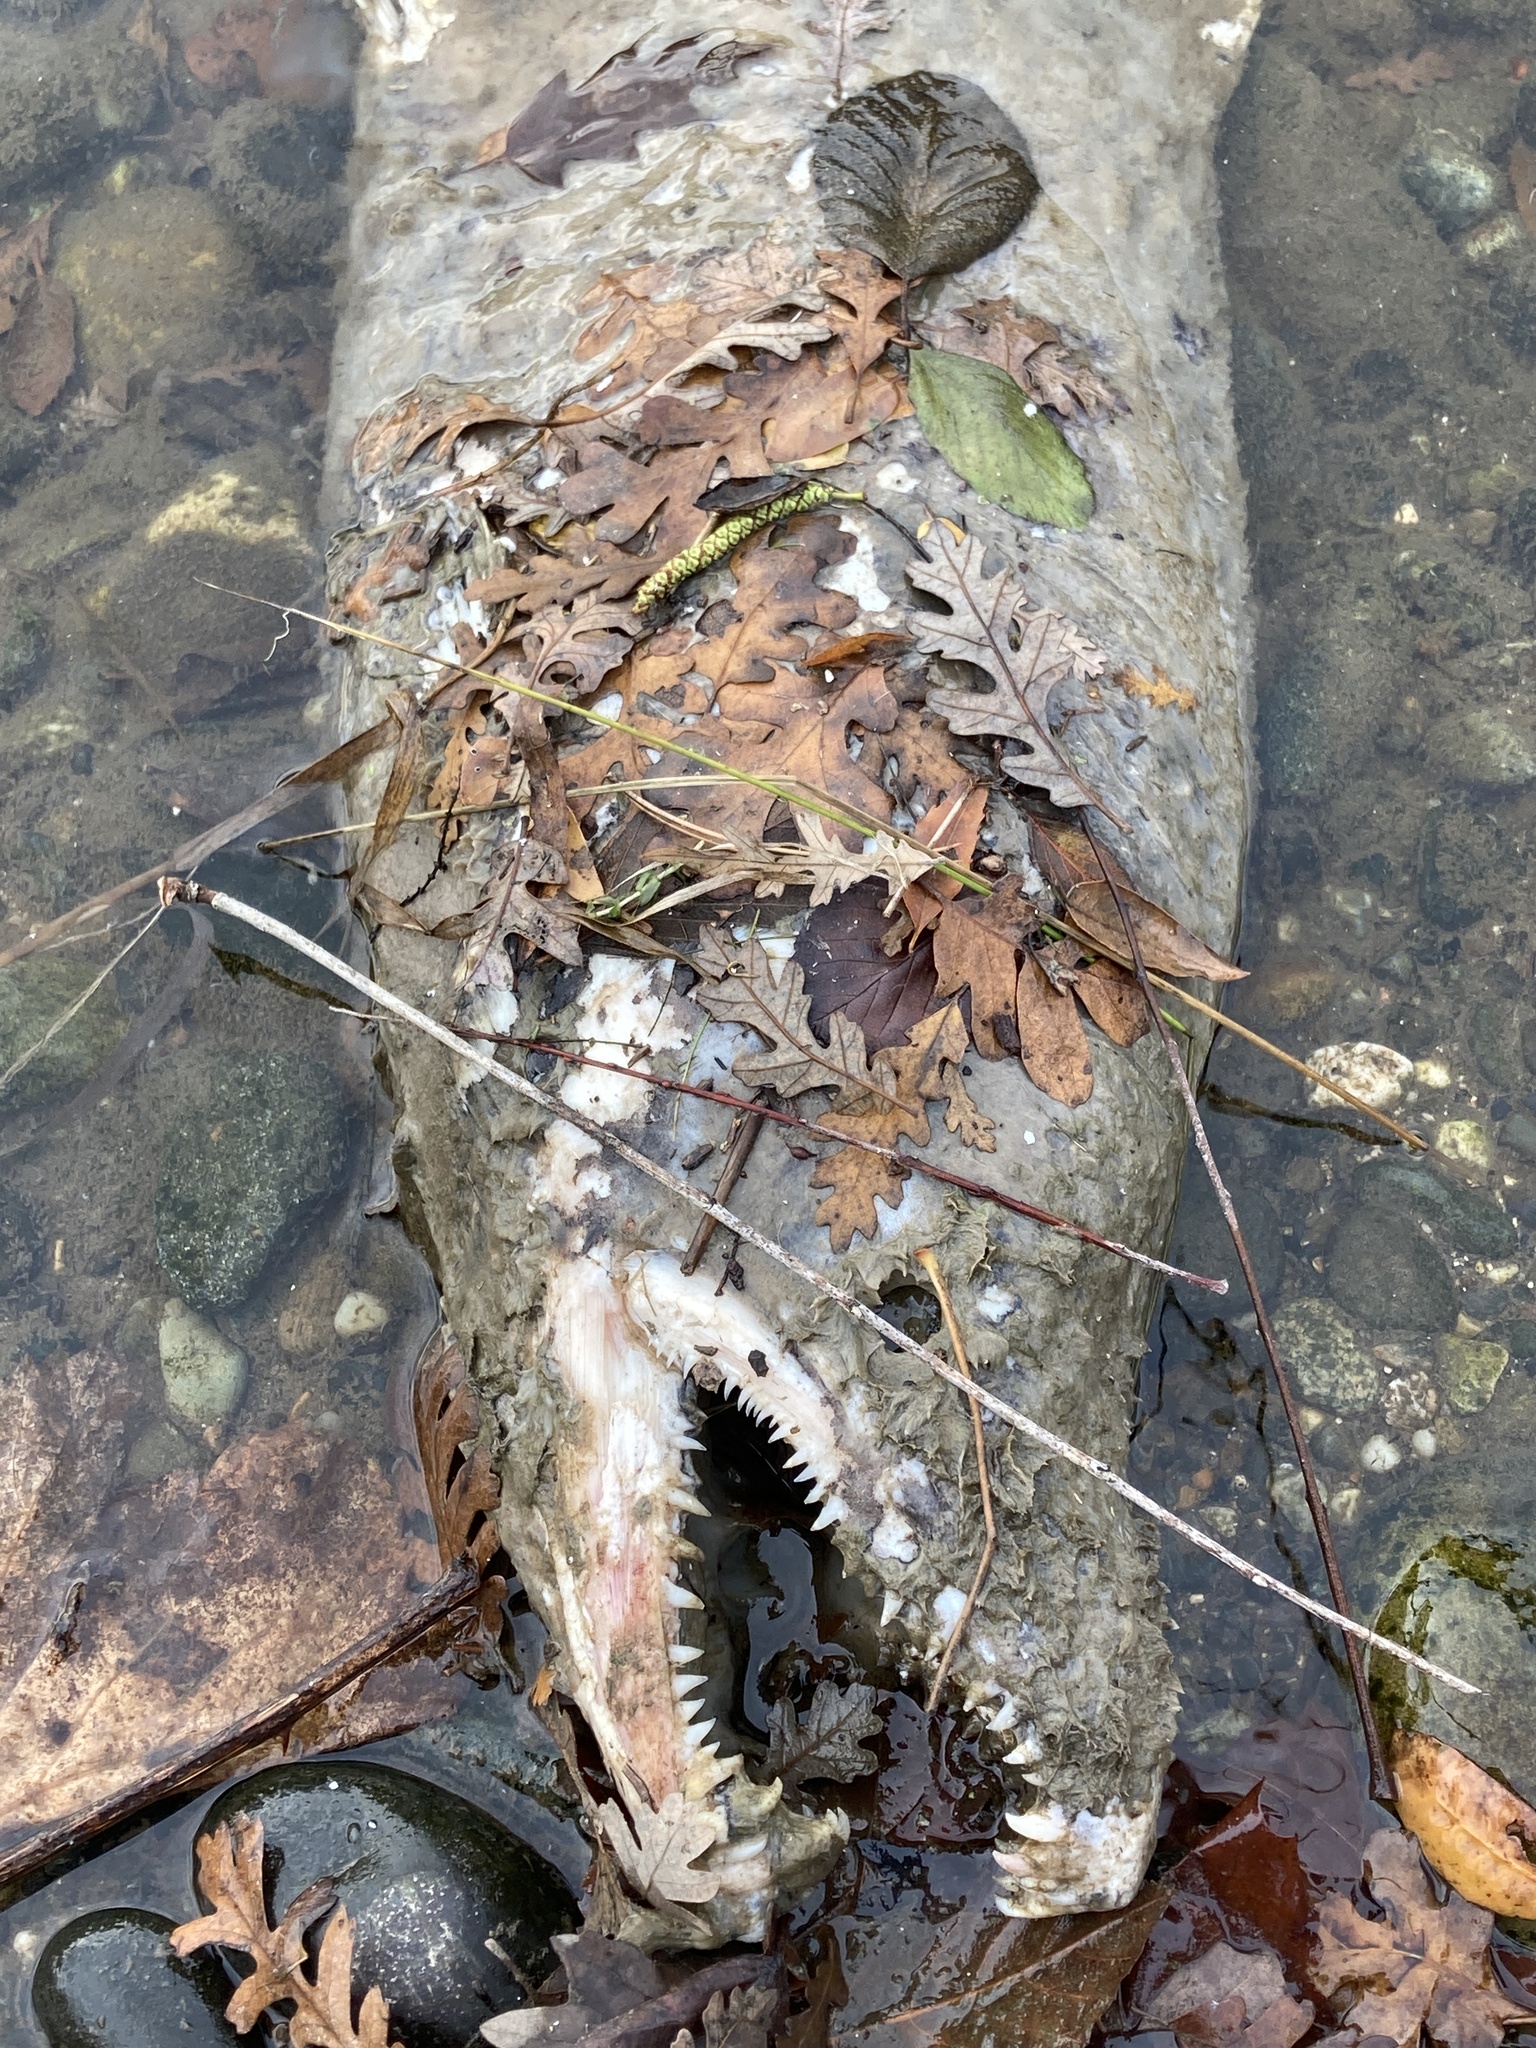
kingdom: Animalia
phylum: Chordata
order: Salmoniformes
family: Salmonidae
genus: Oncorhynchus
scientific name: Oncorhynchus tshawytscha
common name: Chinook salmon
